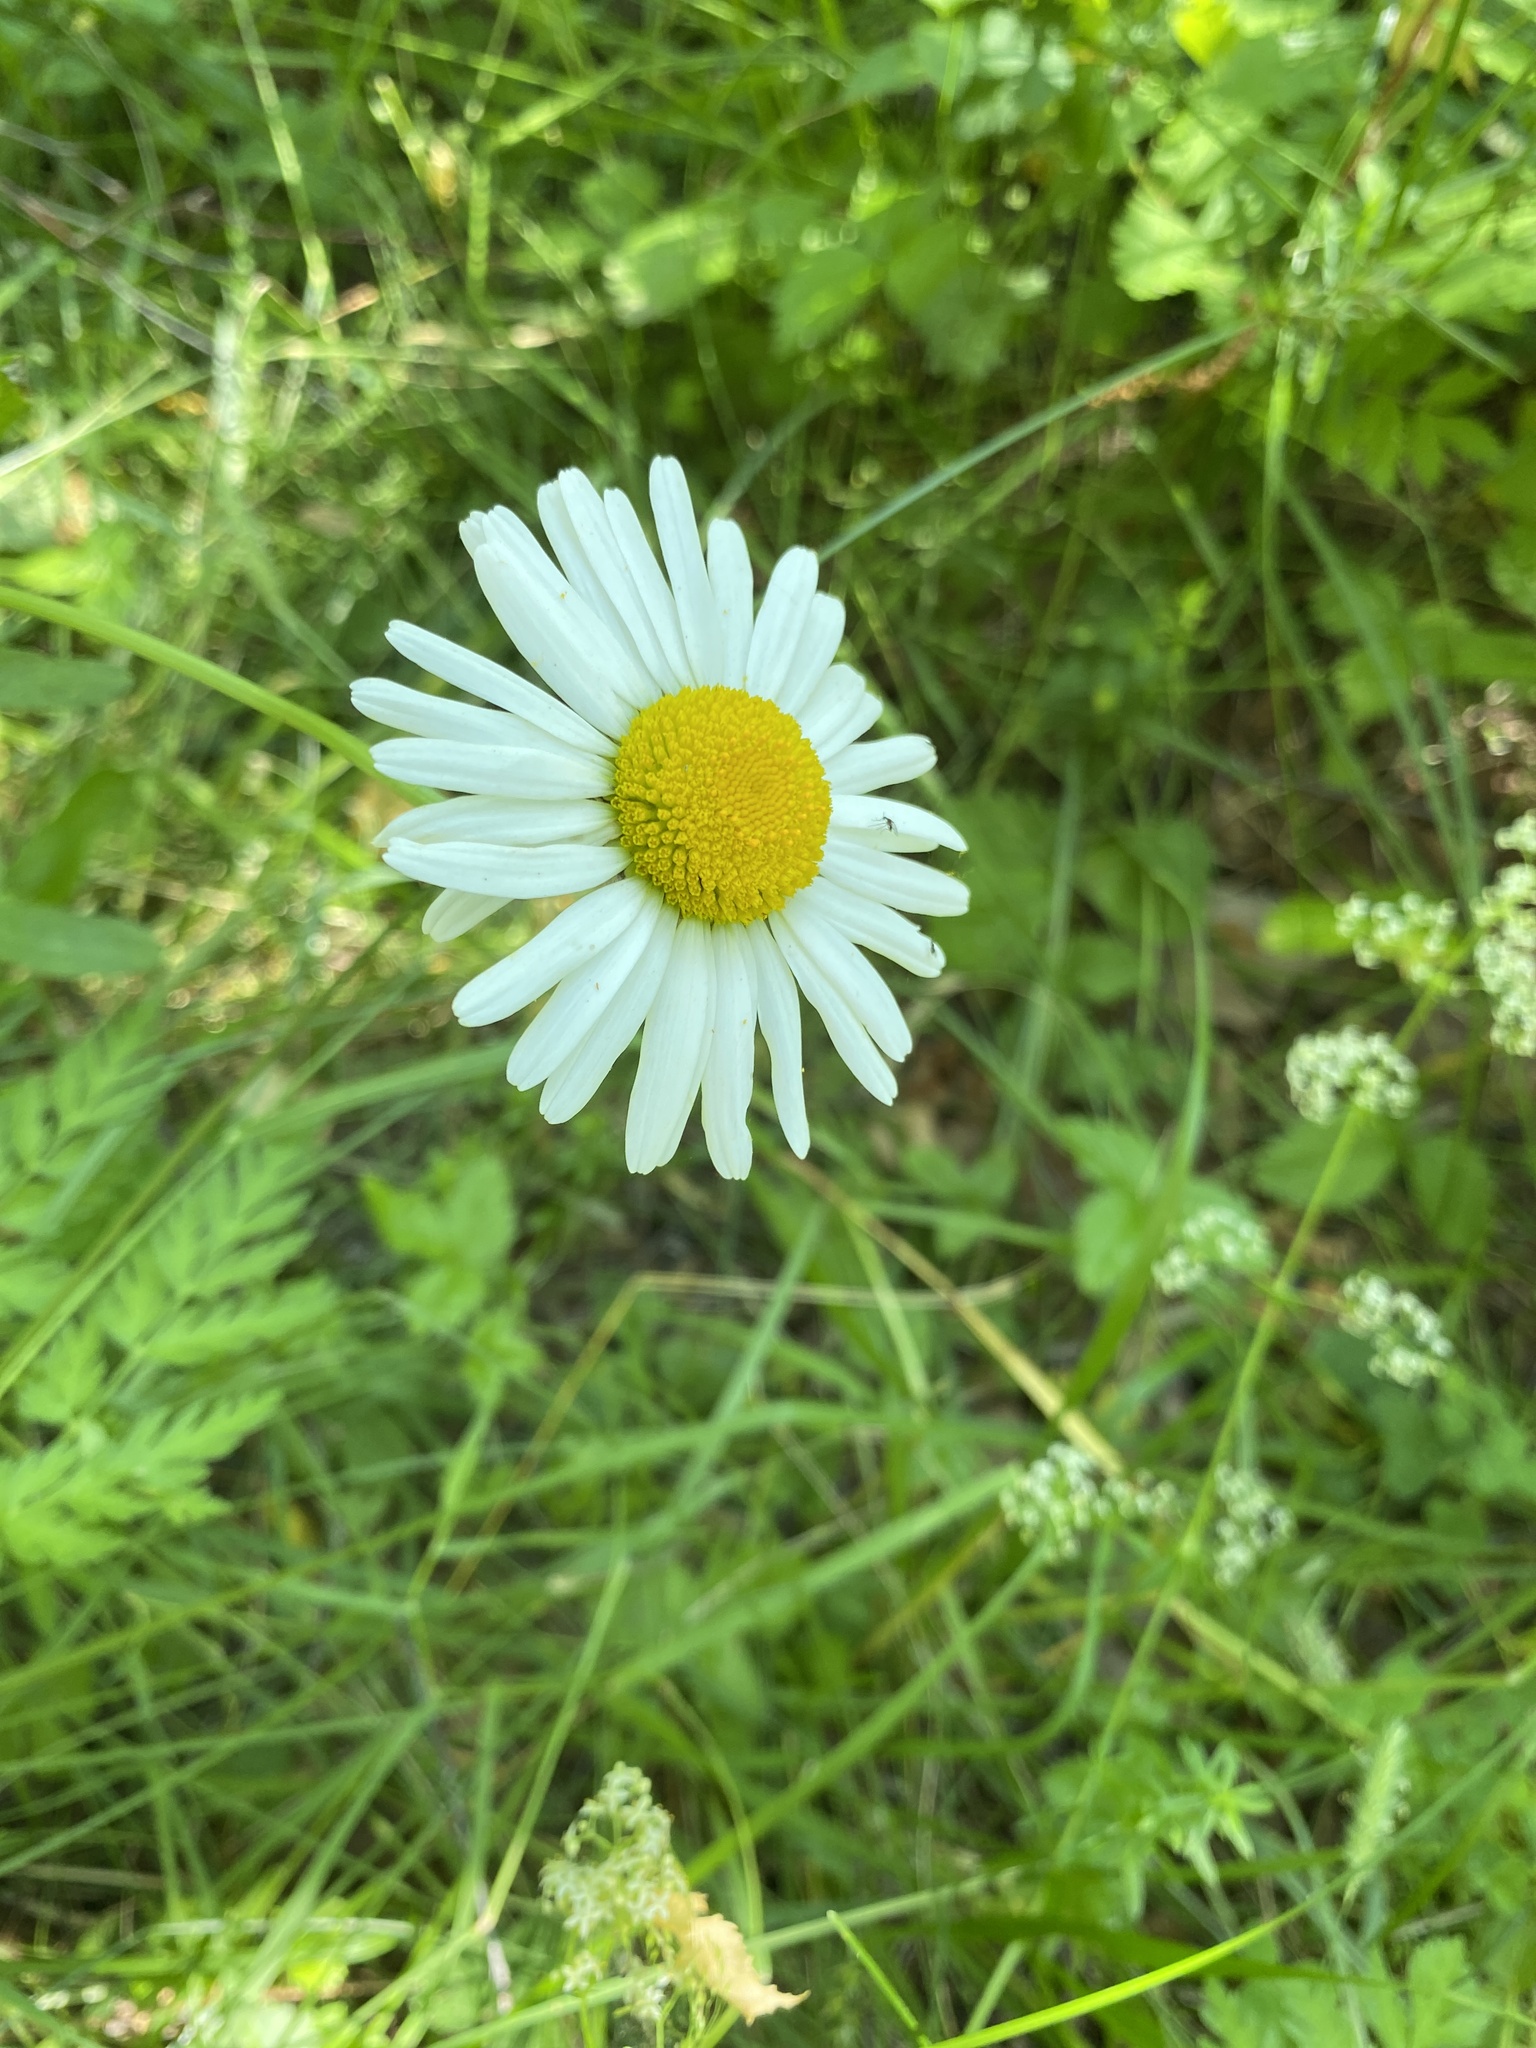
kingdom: Plantae
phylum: Tracheophyta
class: Magnoliopsida
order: Asterales
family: Asteraceae
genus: Leucanthemum
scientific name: Leucanthemum vulgare
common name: Oxeye daisy
